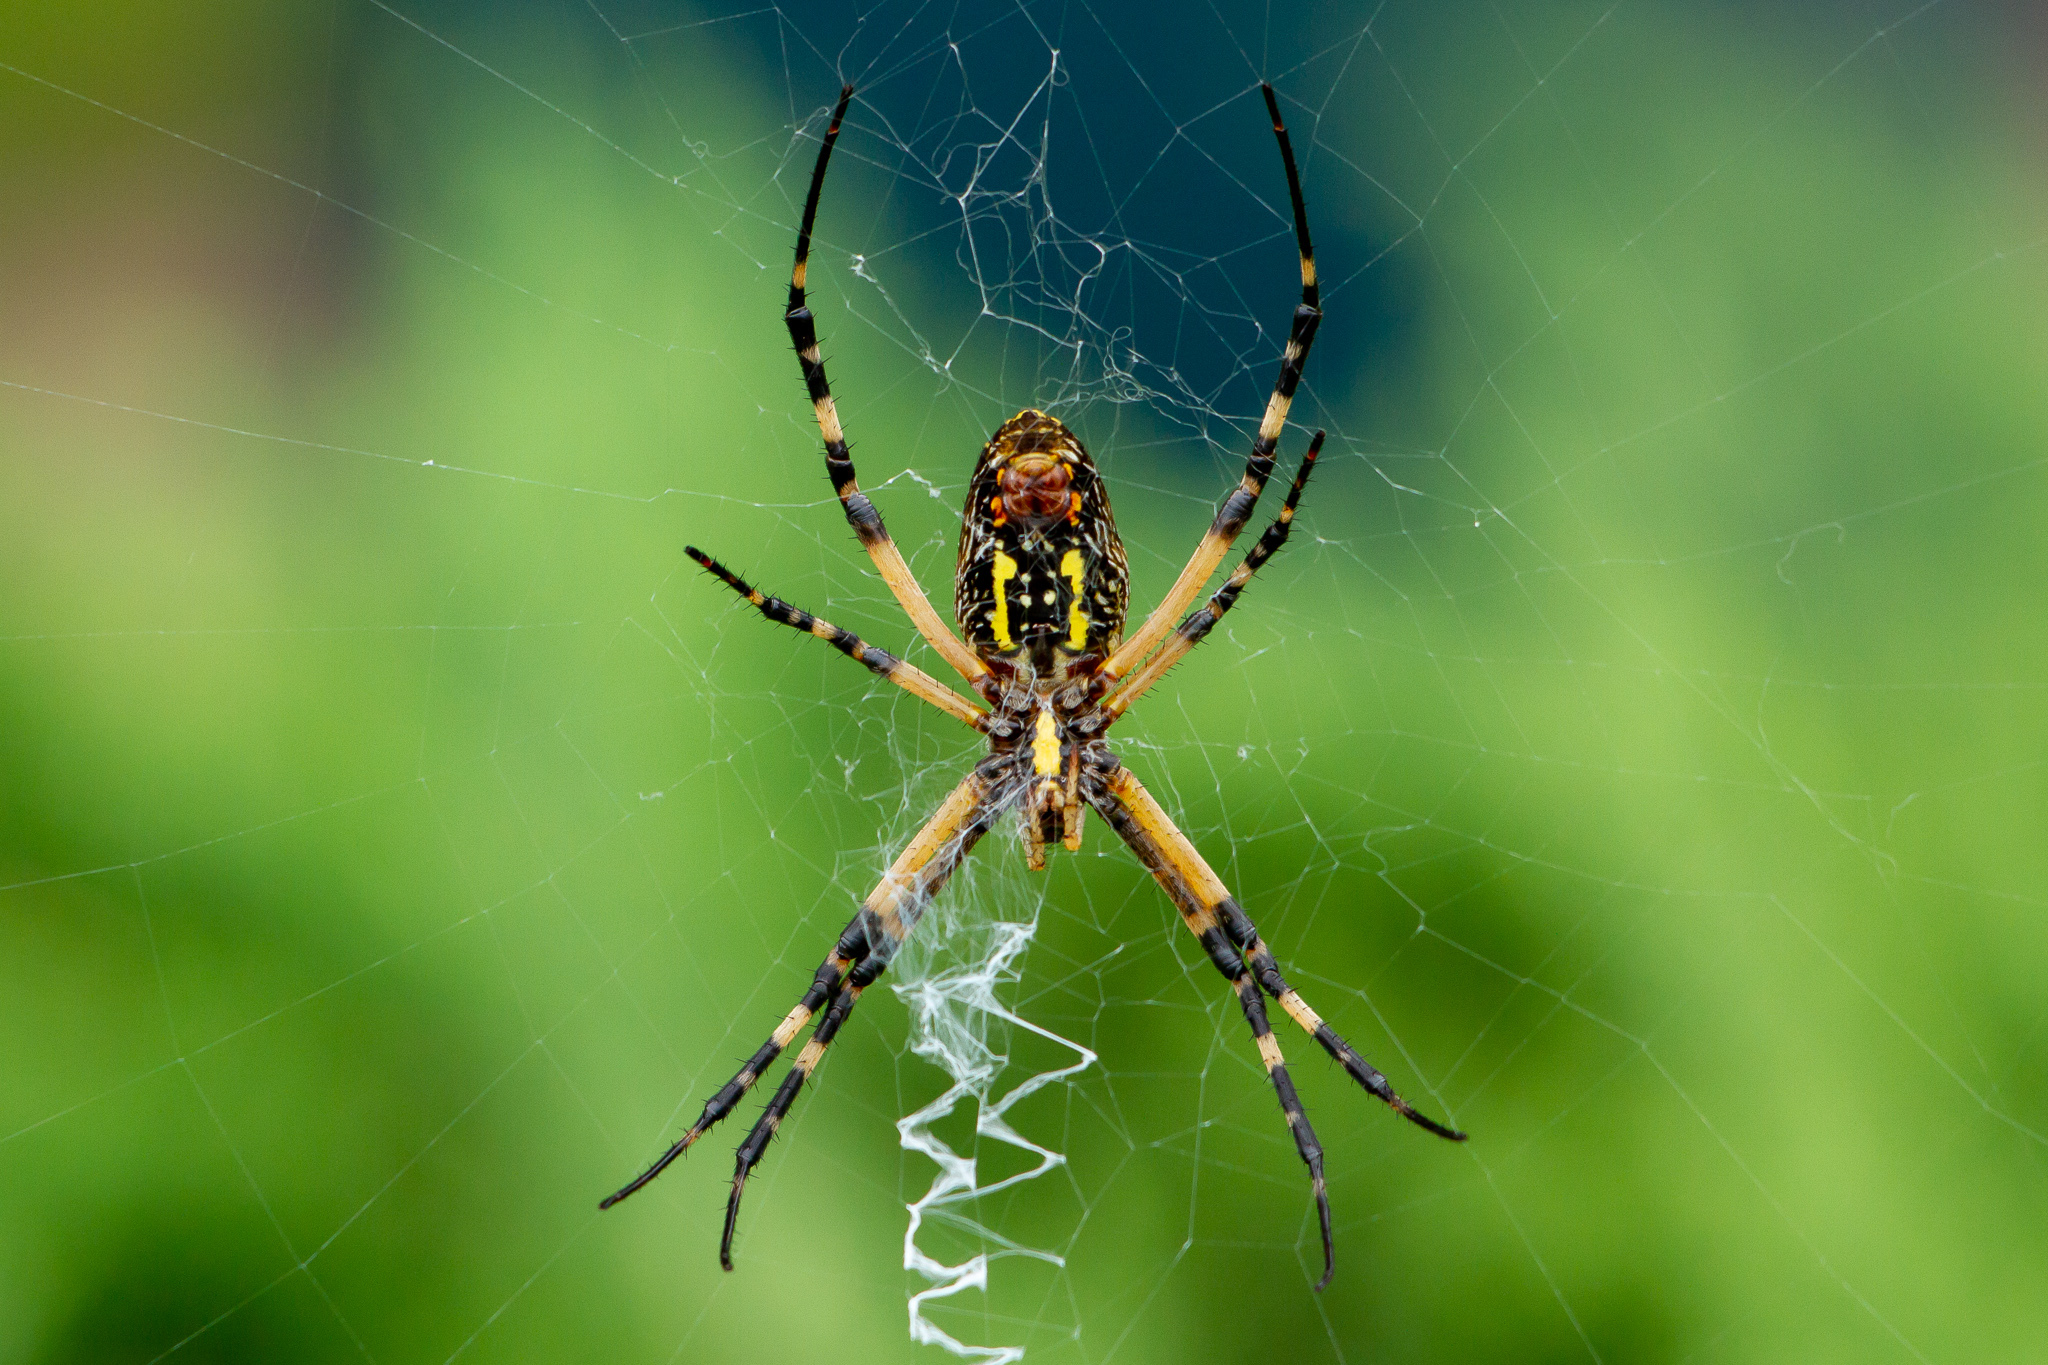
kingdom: Animalia
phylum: Arthropoda
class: Arachnida
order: Araneae
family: Araneidae
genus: Argiope
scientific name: Argiope aurantia
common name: Orb weavers
